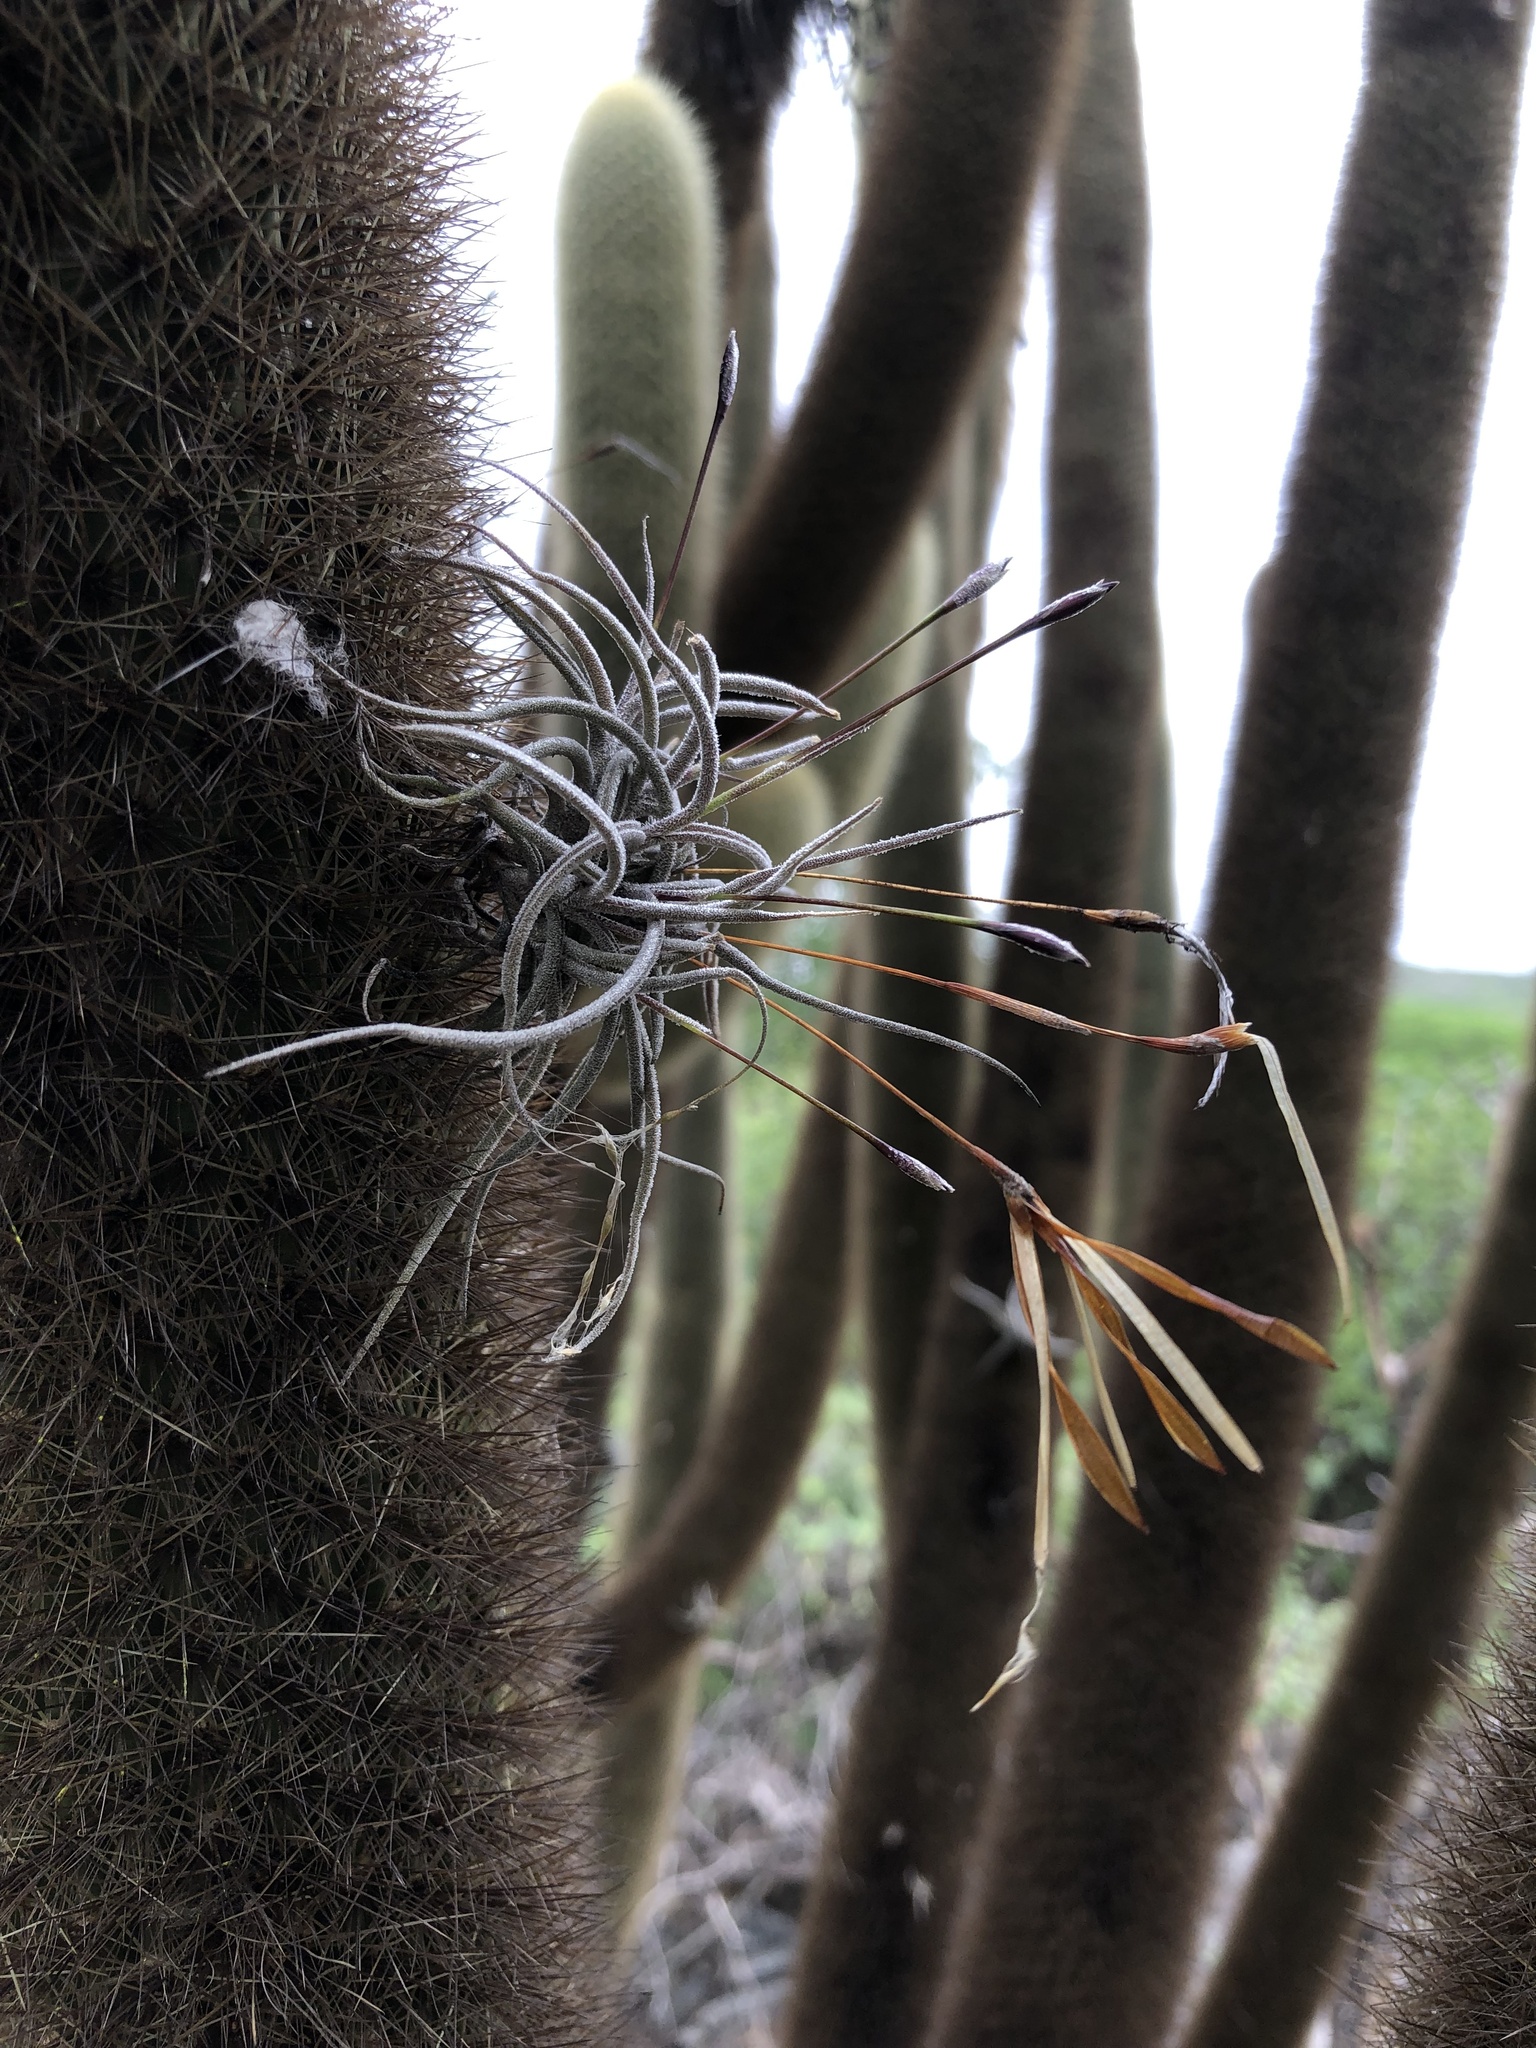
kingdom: Plantae
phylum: Tracheophyta
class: Liliopsida
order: Poales
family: Bromeliaceae
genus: Tillandsia
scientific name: Tillandsia recurvata
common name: Small ballmoss
